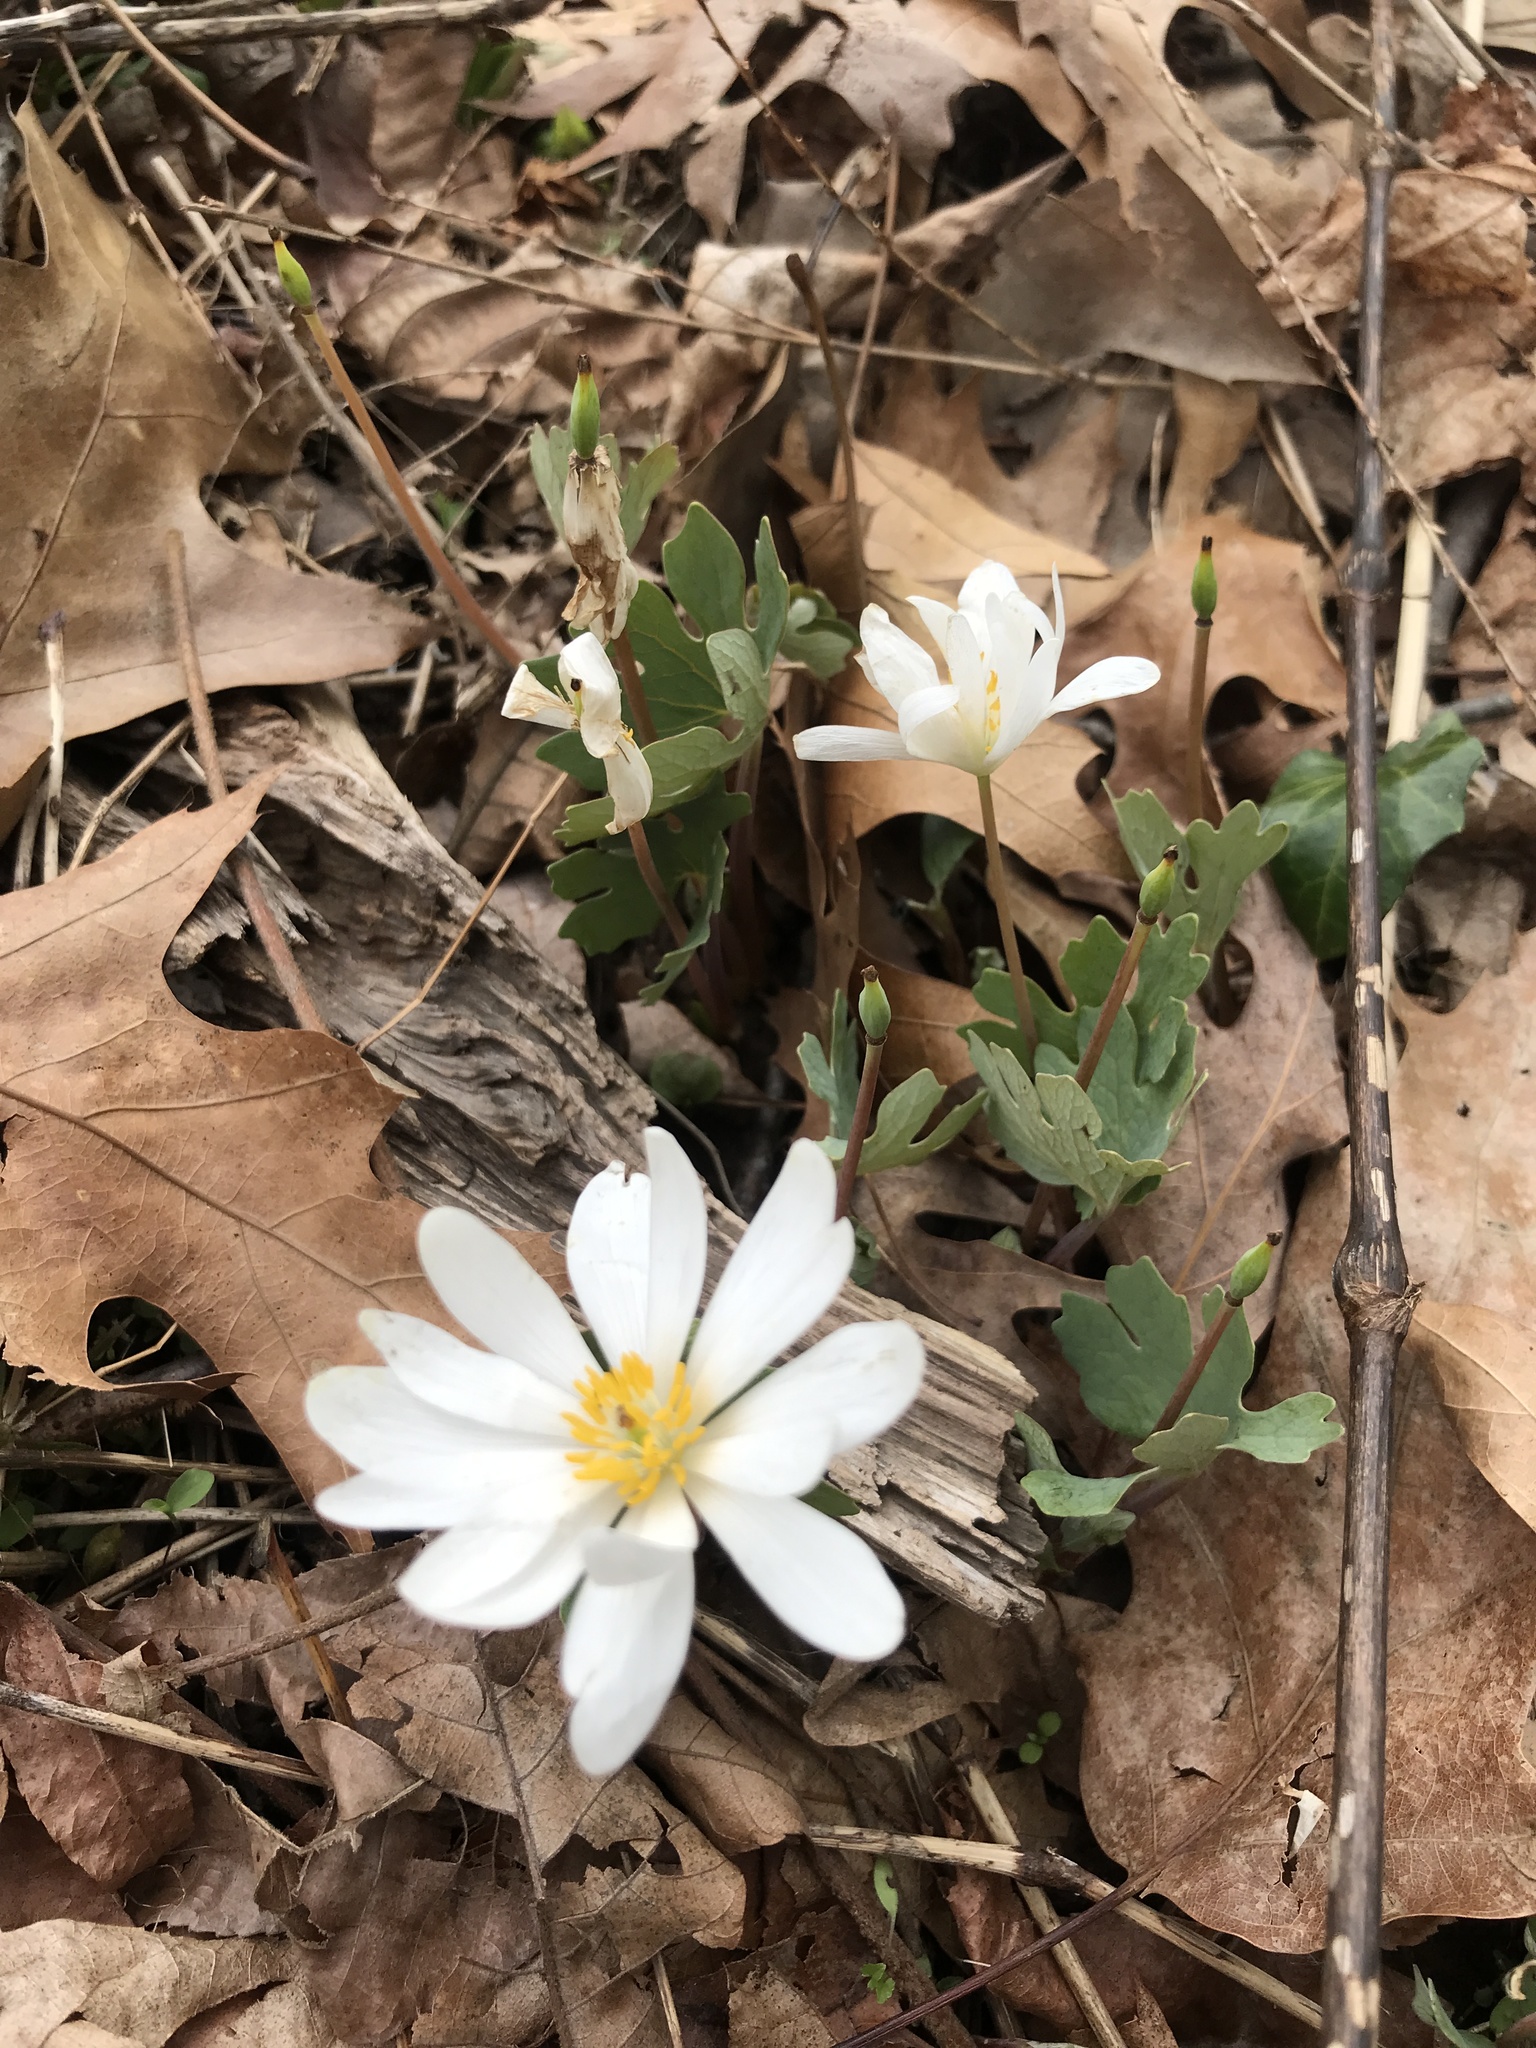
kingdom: Plantae
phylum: Tracheophyta
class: Magnoliopsida
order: Ranunculales
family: Papaveraceae
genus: Sanguinaria
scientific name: Sanguinaria canadensis
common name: Bloodroot
